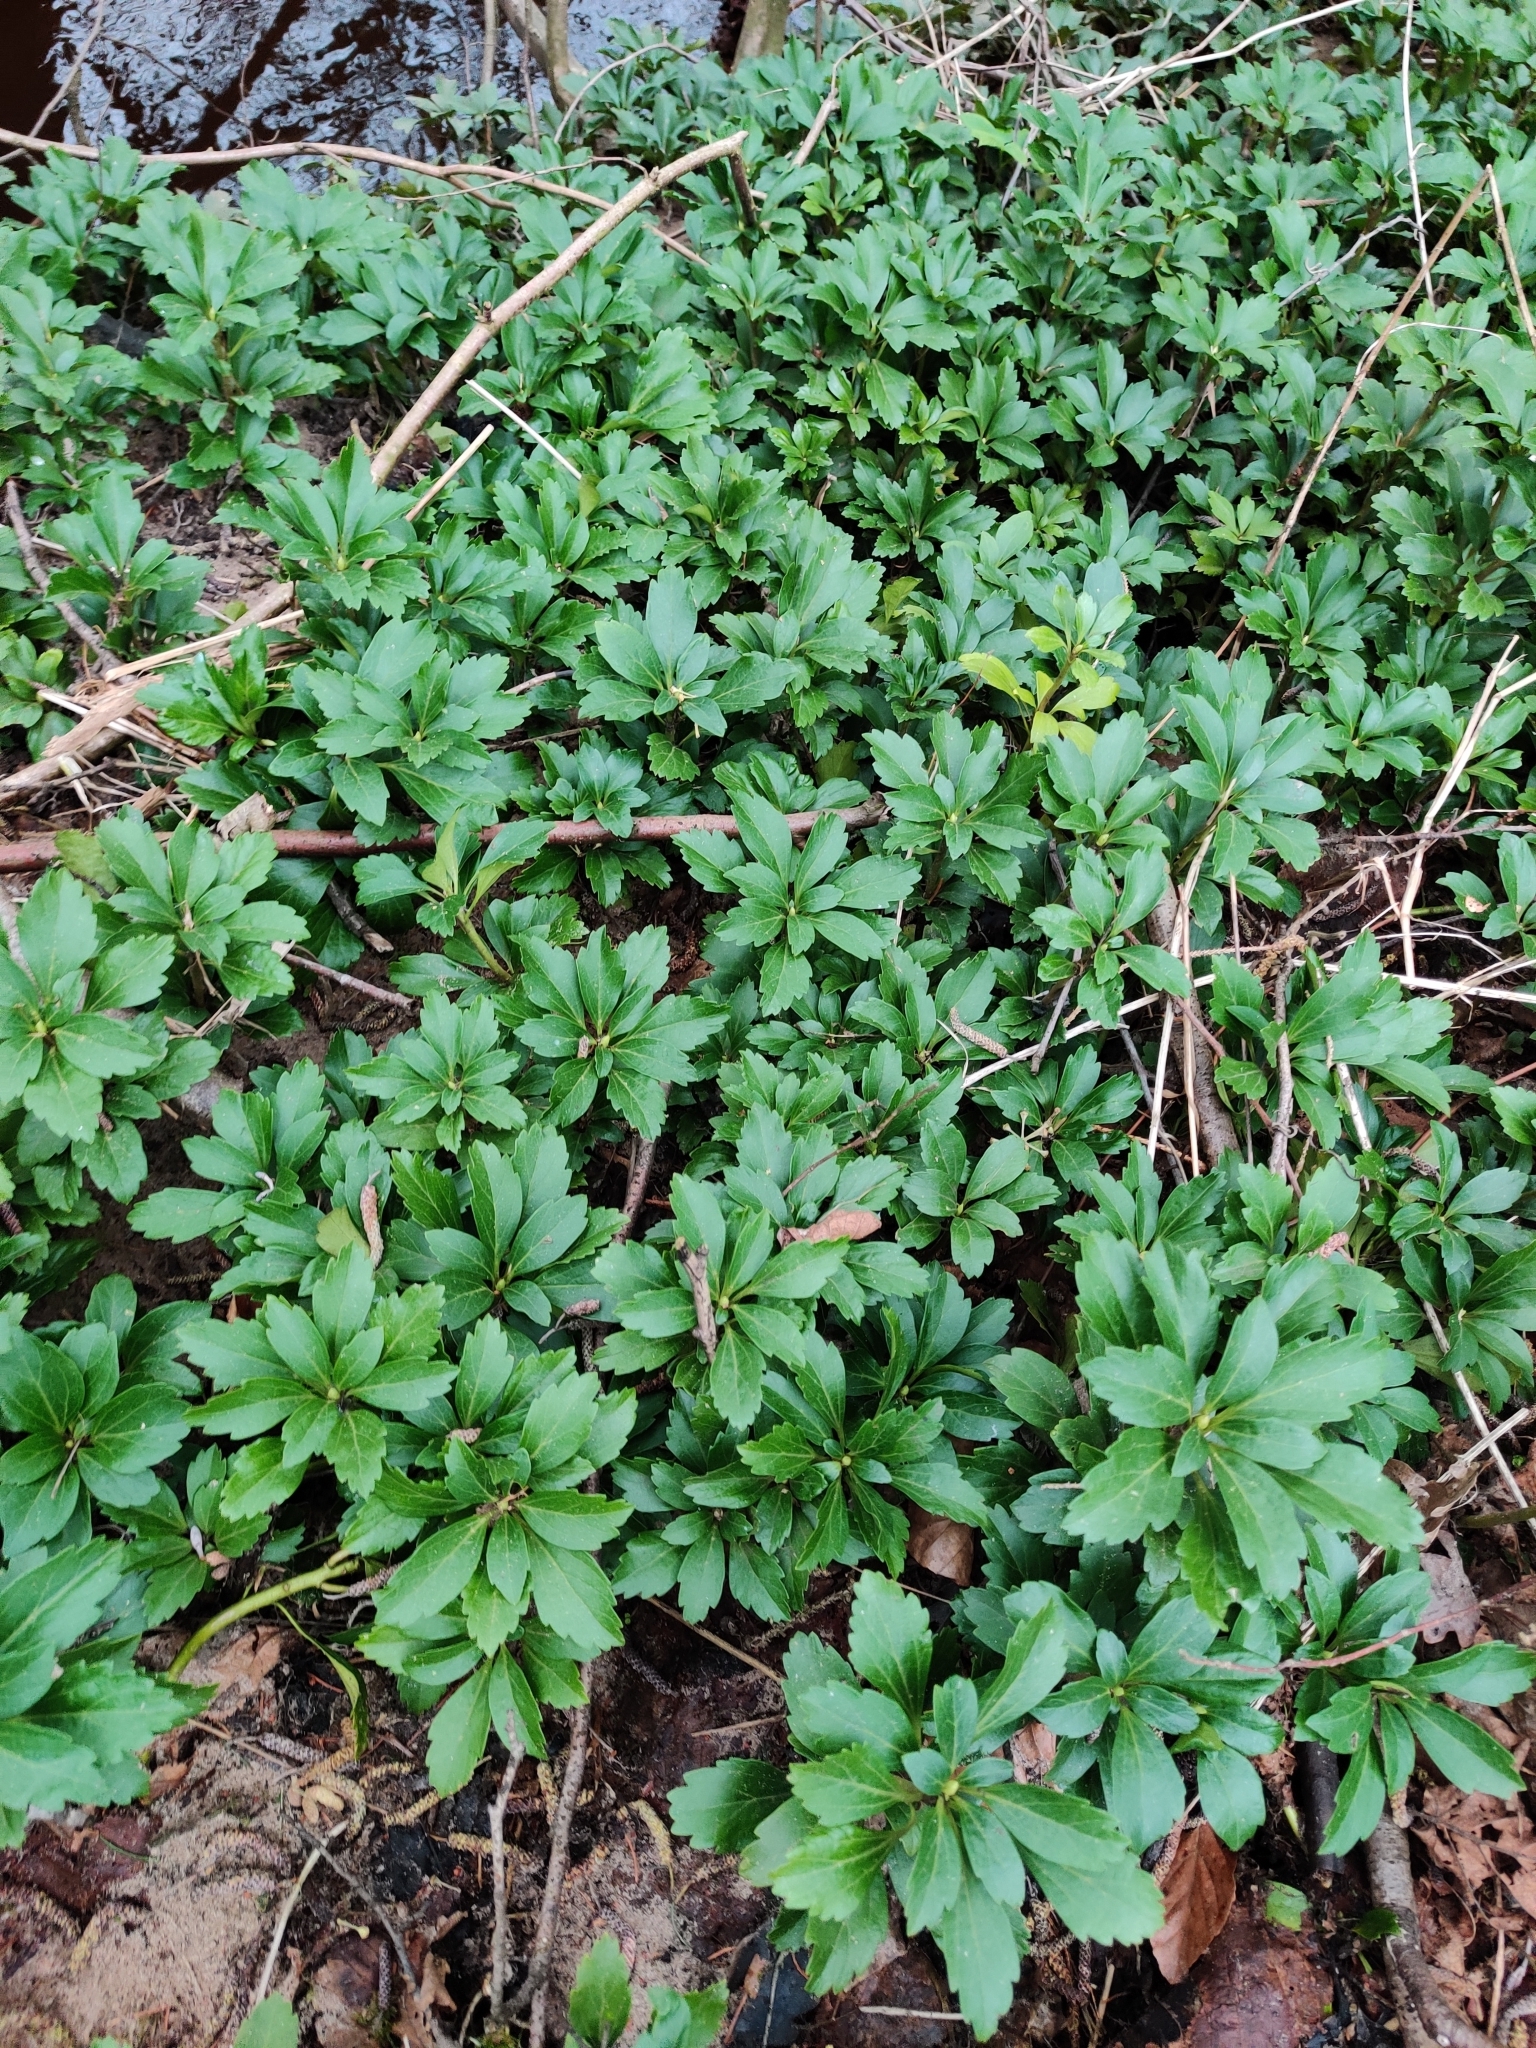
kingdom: Plantae
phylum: Tracheophyta
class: Magnoliopsida
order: Buxales
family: Buxaceae
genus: Pachysandra
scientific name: Pachysandra terminalis
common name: Japanese pachysandra
